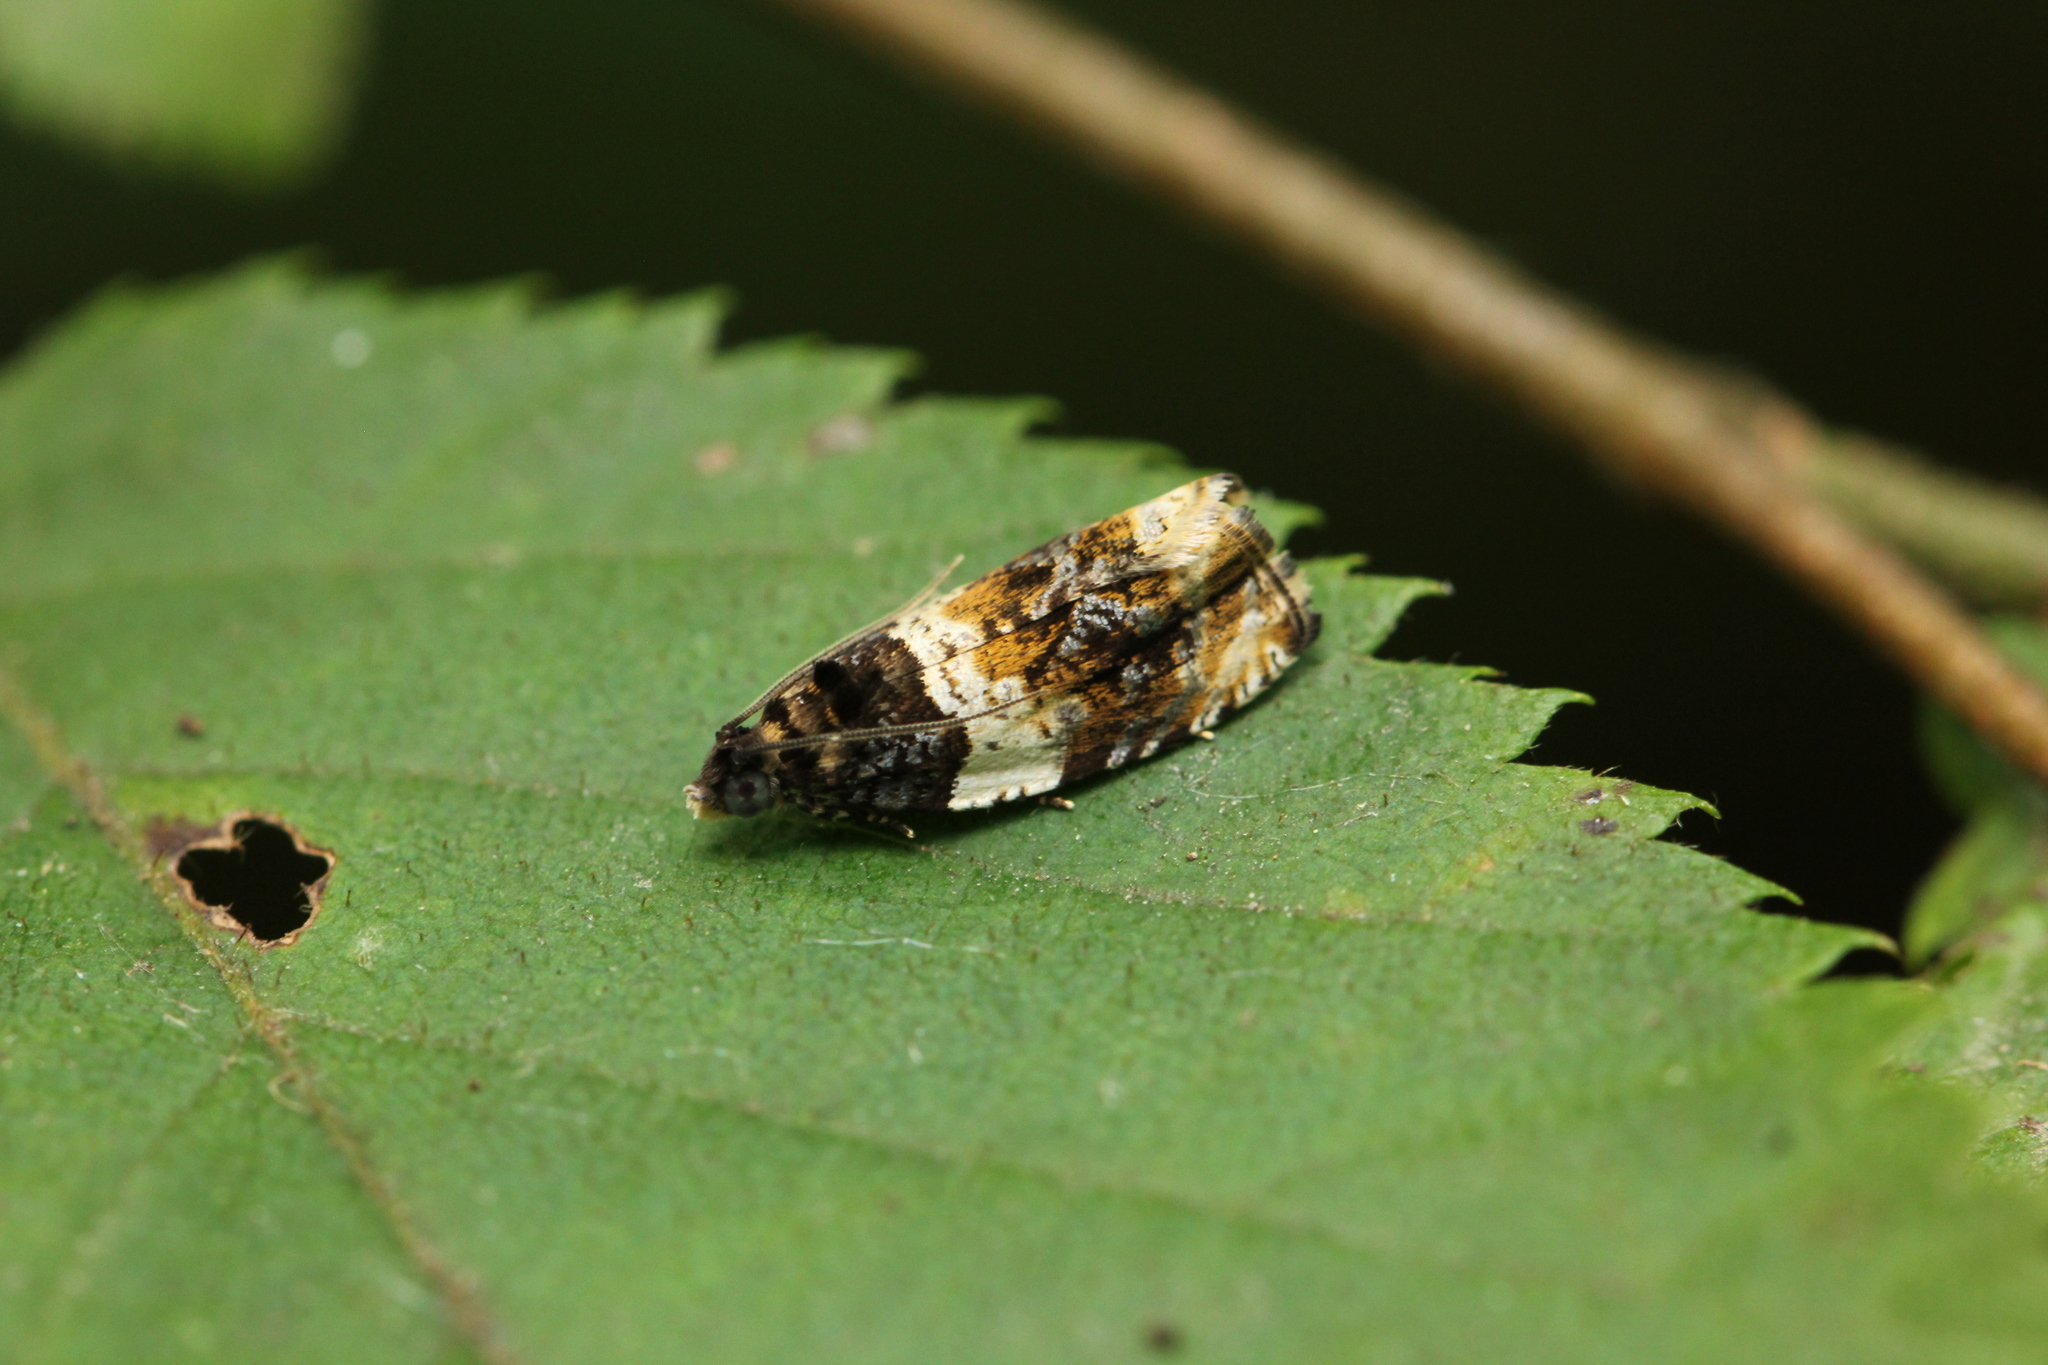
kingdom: Animalia
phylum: Arthropoda
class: Insecta
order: Lepidoptera
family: Tortricidae
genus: Olethreutes
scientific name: Olethreutes fasciatana
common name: Banded olethreutes moth
